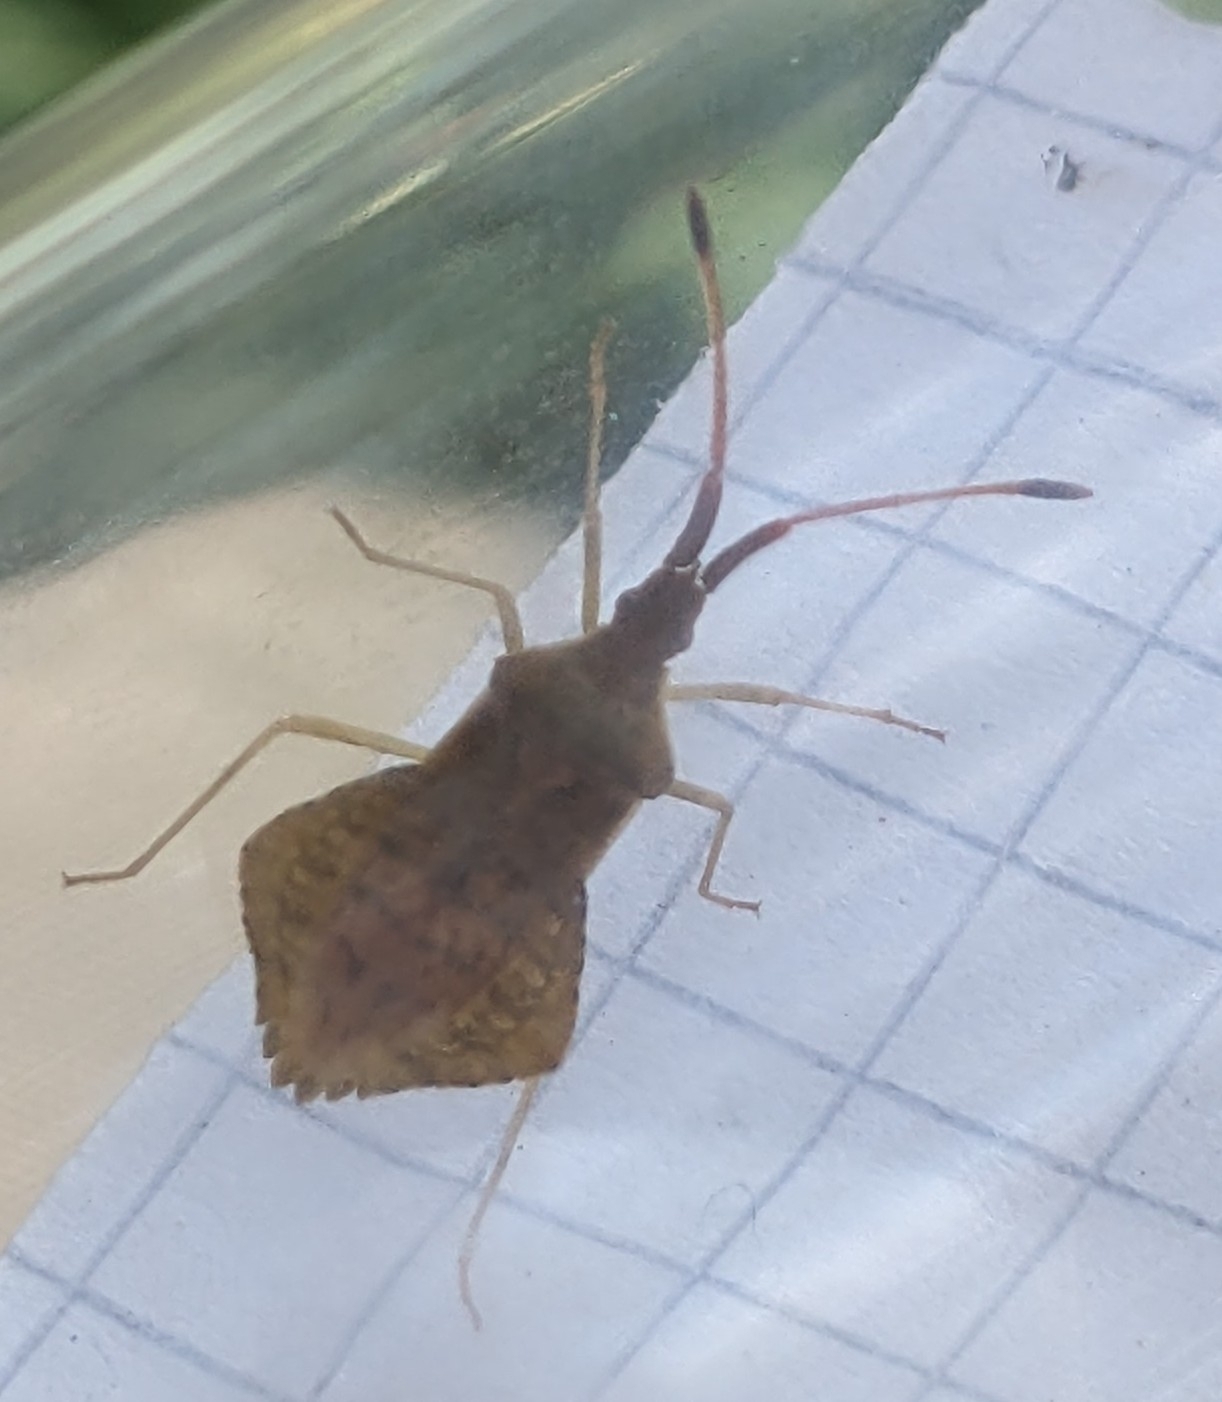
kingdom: Animalia
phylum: Arthropoda
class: Insecta
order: Hemiptera
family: Coreidae
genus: Syromastus
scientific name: Syromastus rhombeus
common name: Rhombic leatherbug
